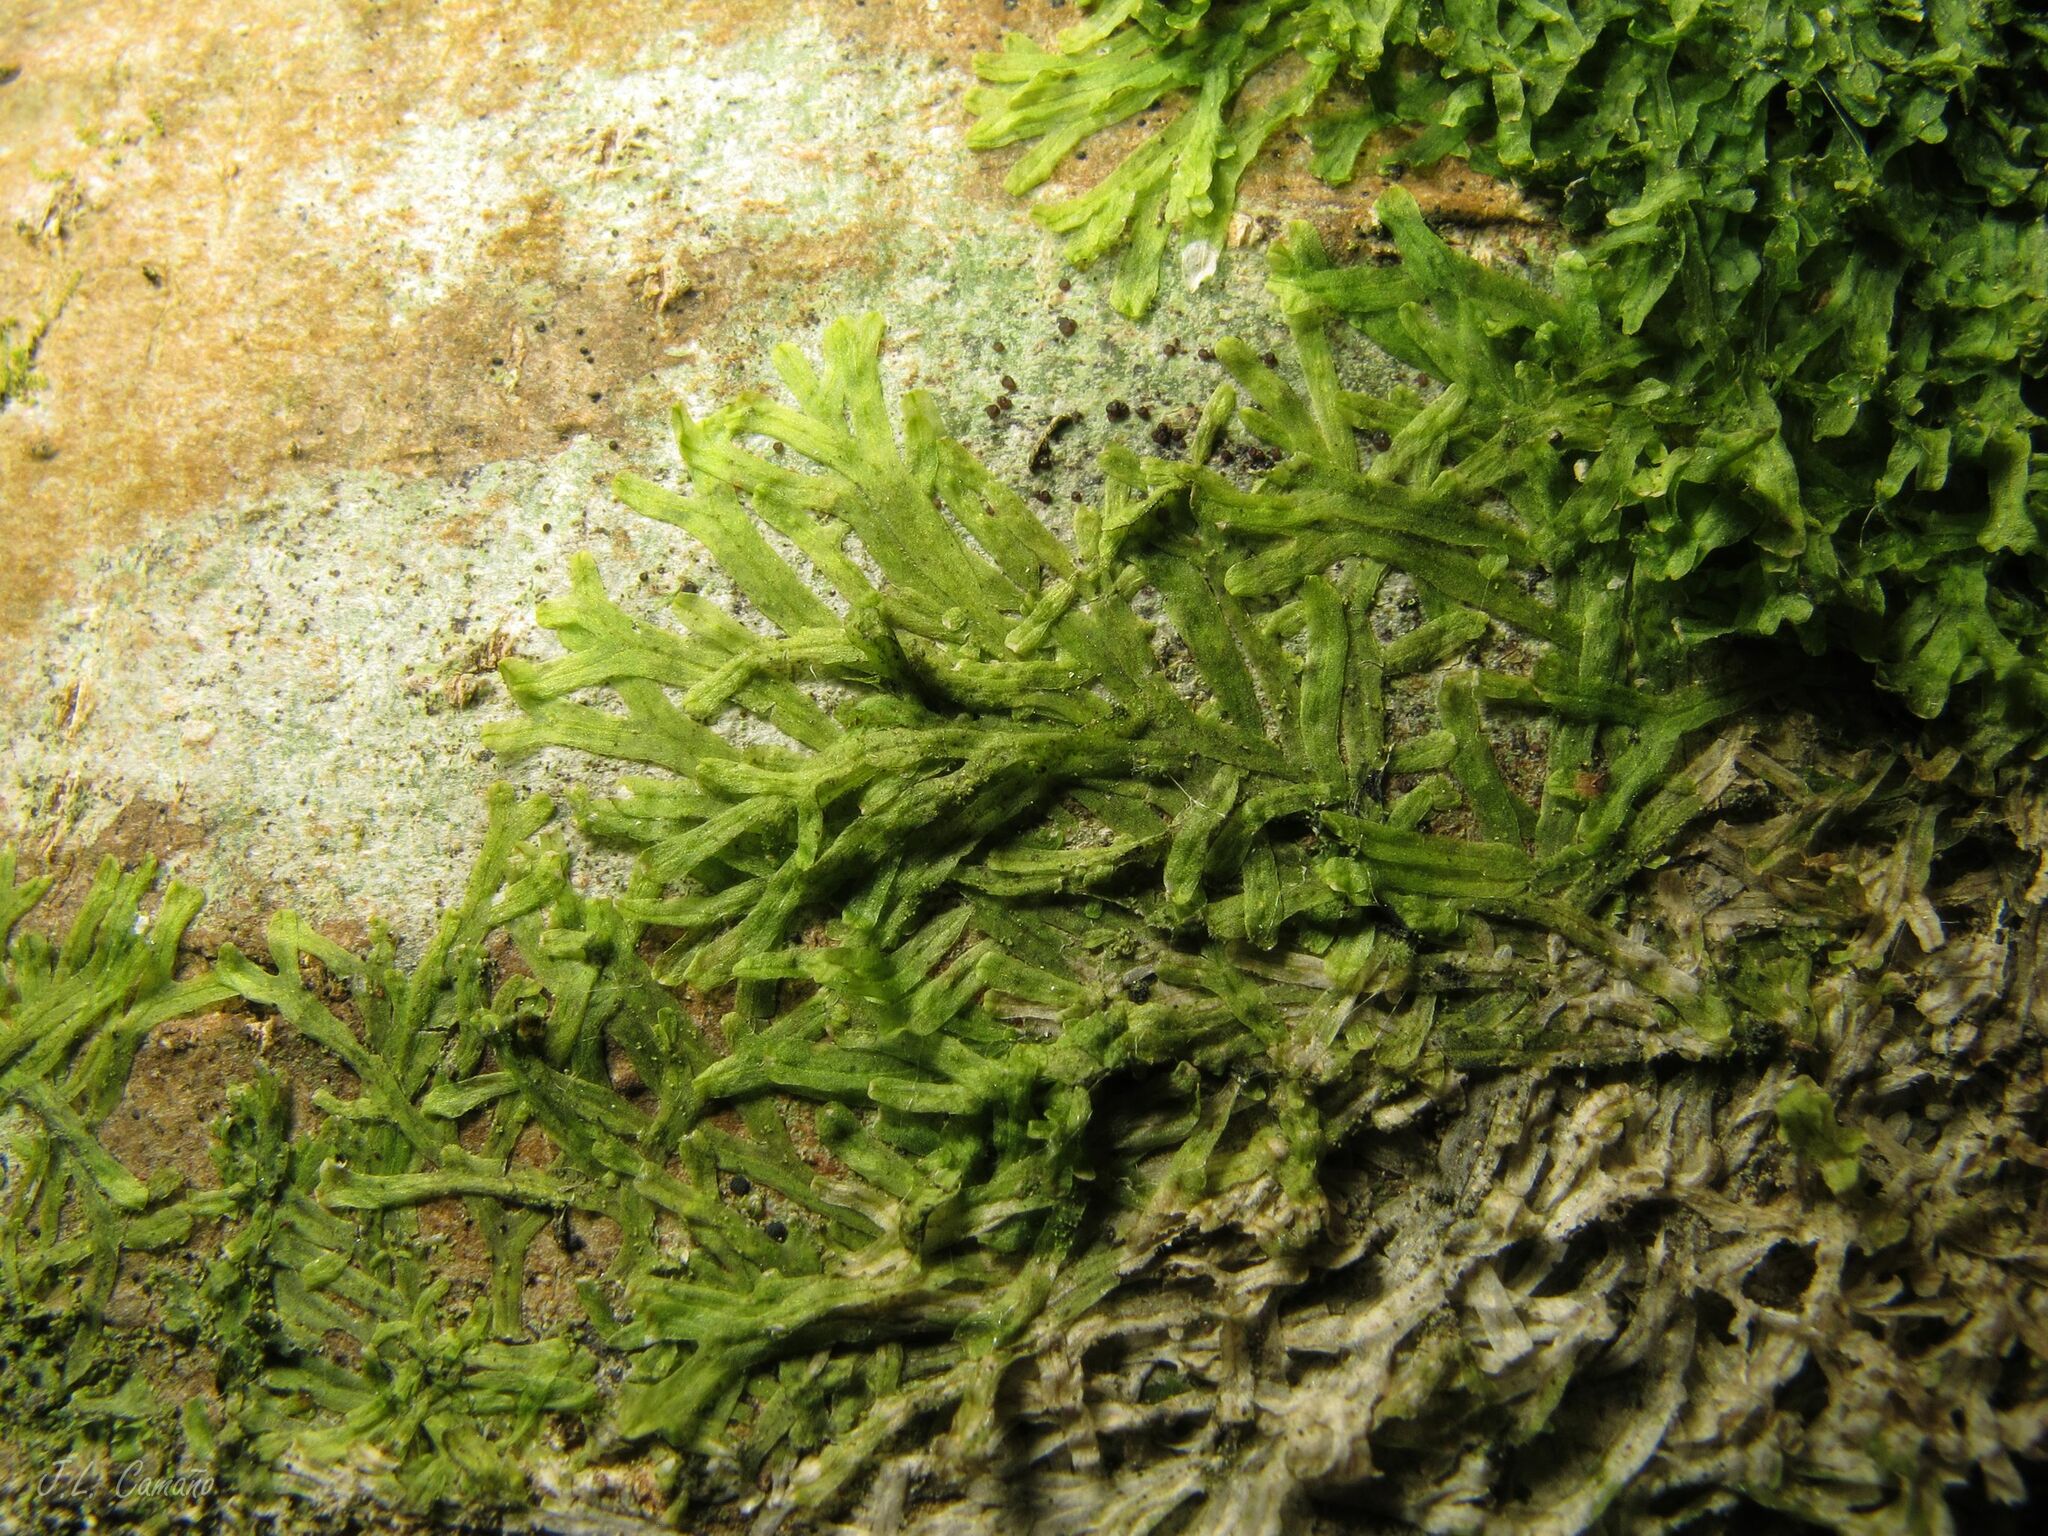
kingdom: Plantae
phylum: Marchantiophyta
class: Jungermanniopsida
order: Metzgeriales
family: Metzgeriaceae
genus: Metzgeria
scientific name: Metzgeria furcata
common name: Forked veilwort
